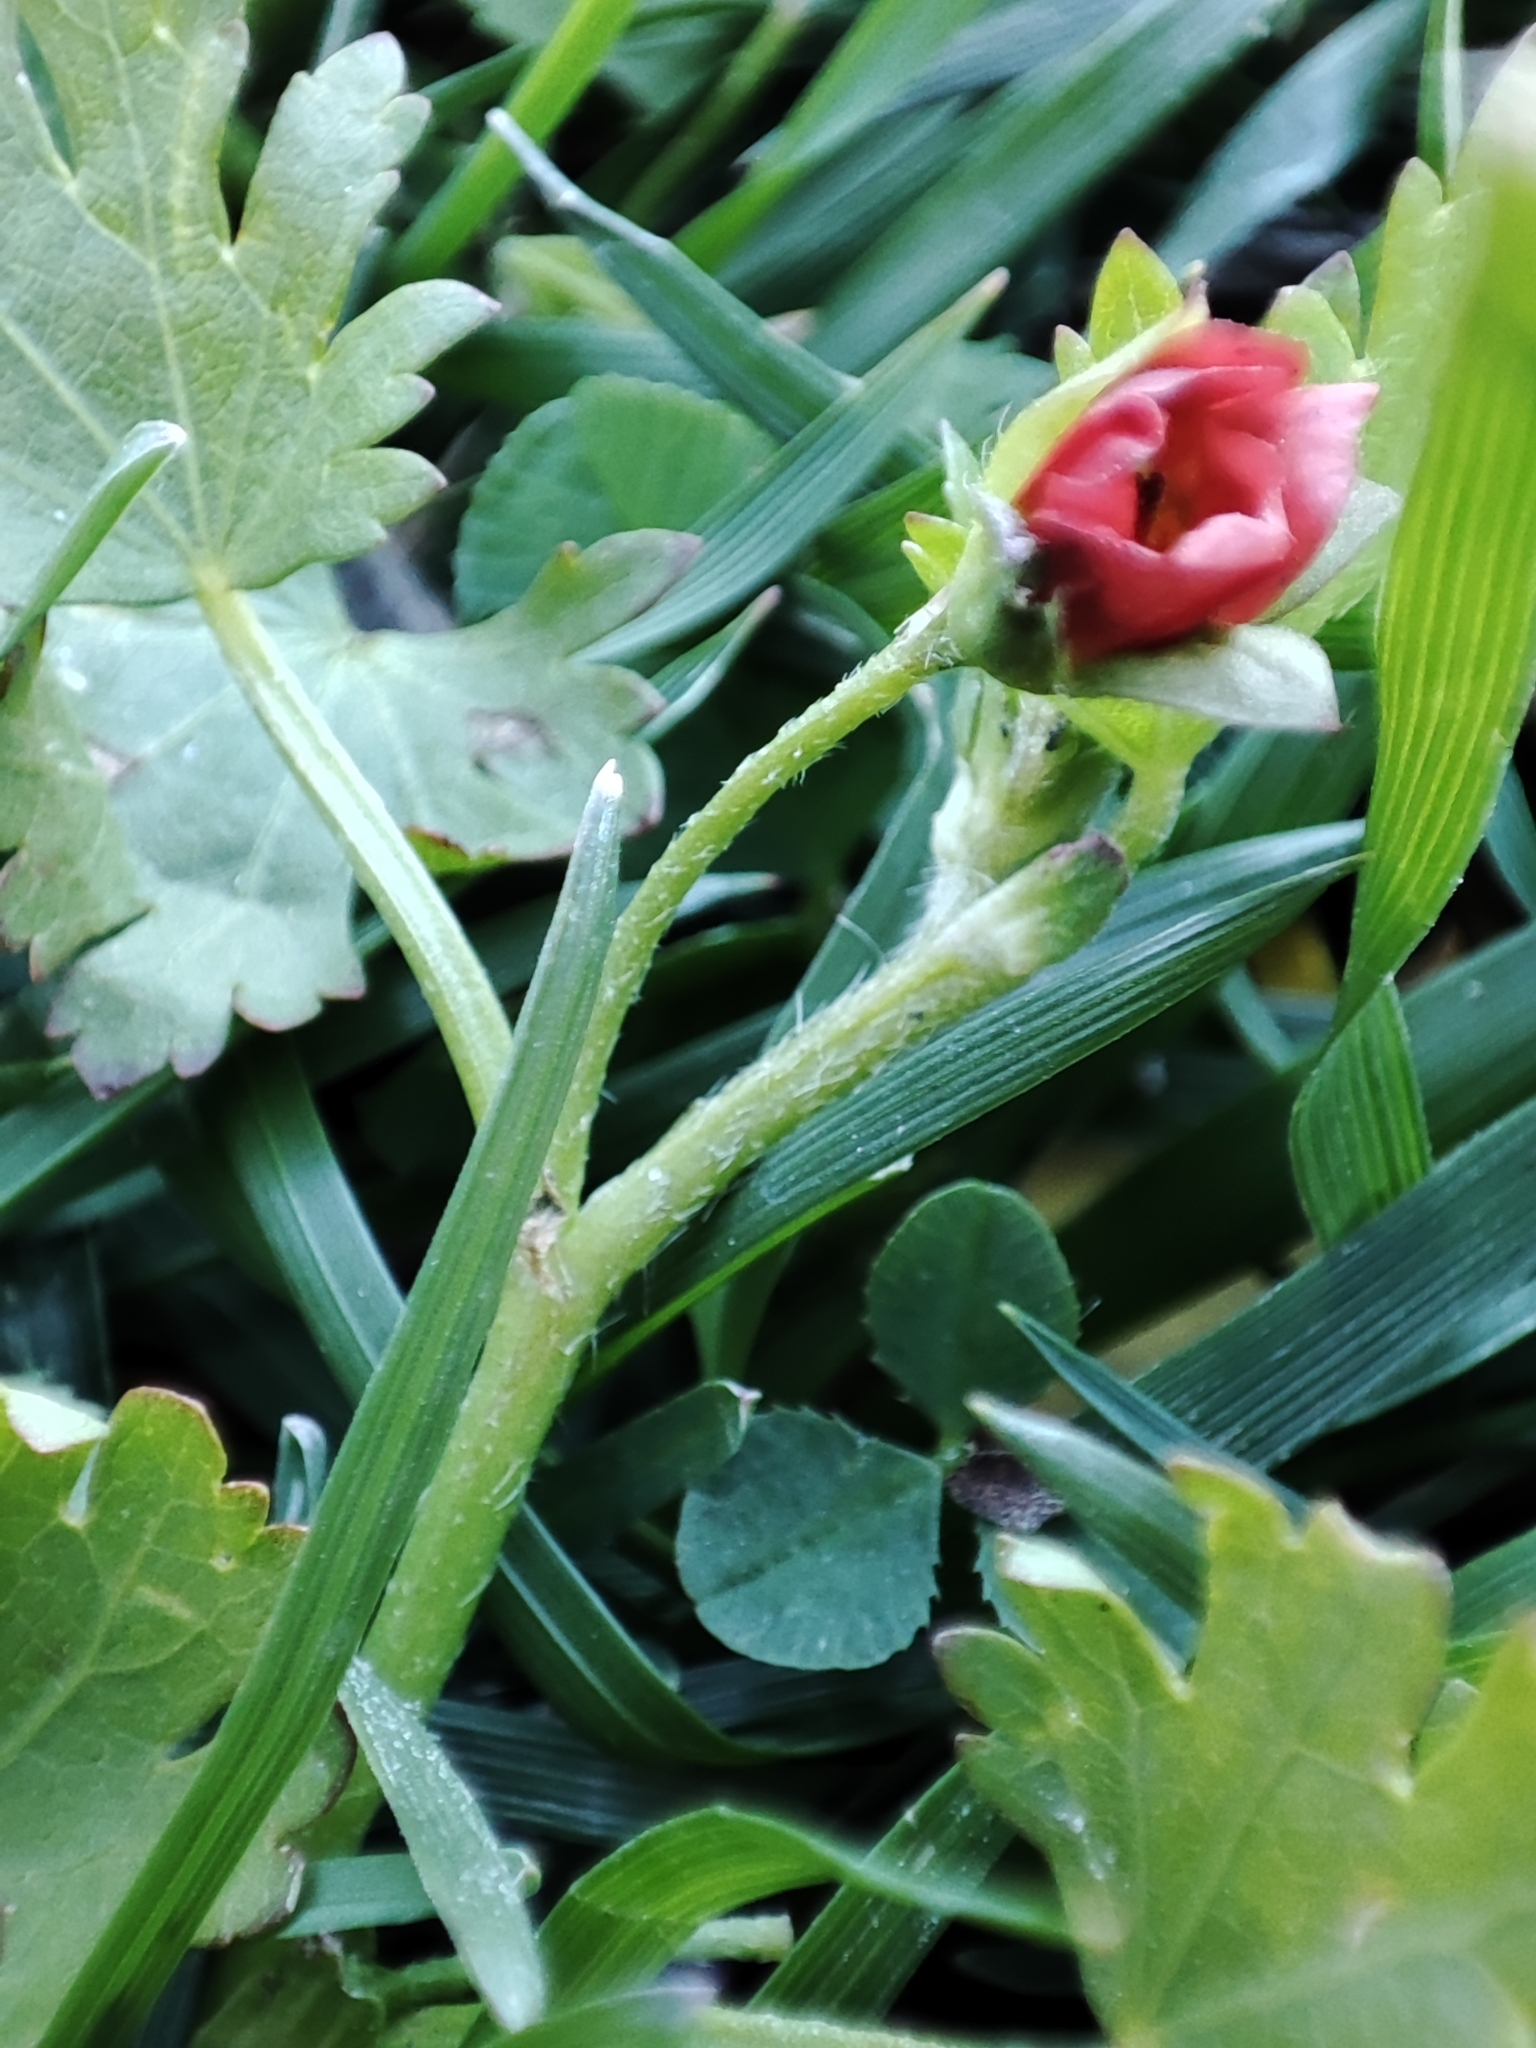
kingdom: Plantae
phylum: Tracheophyta
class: Magnoliopsida
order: Malvales
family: Malvaceae
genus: Modiola
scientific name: Modiola caroliniana
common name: Carolina bristlemallow
